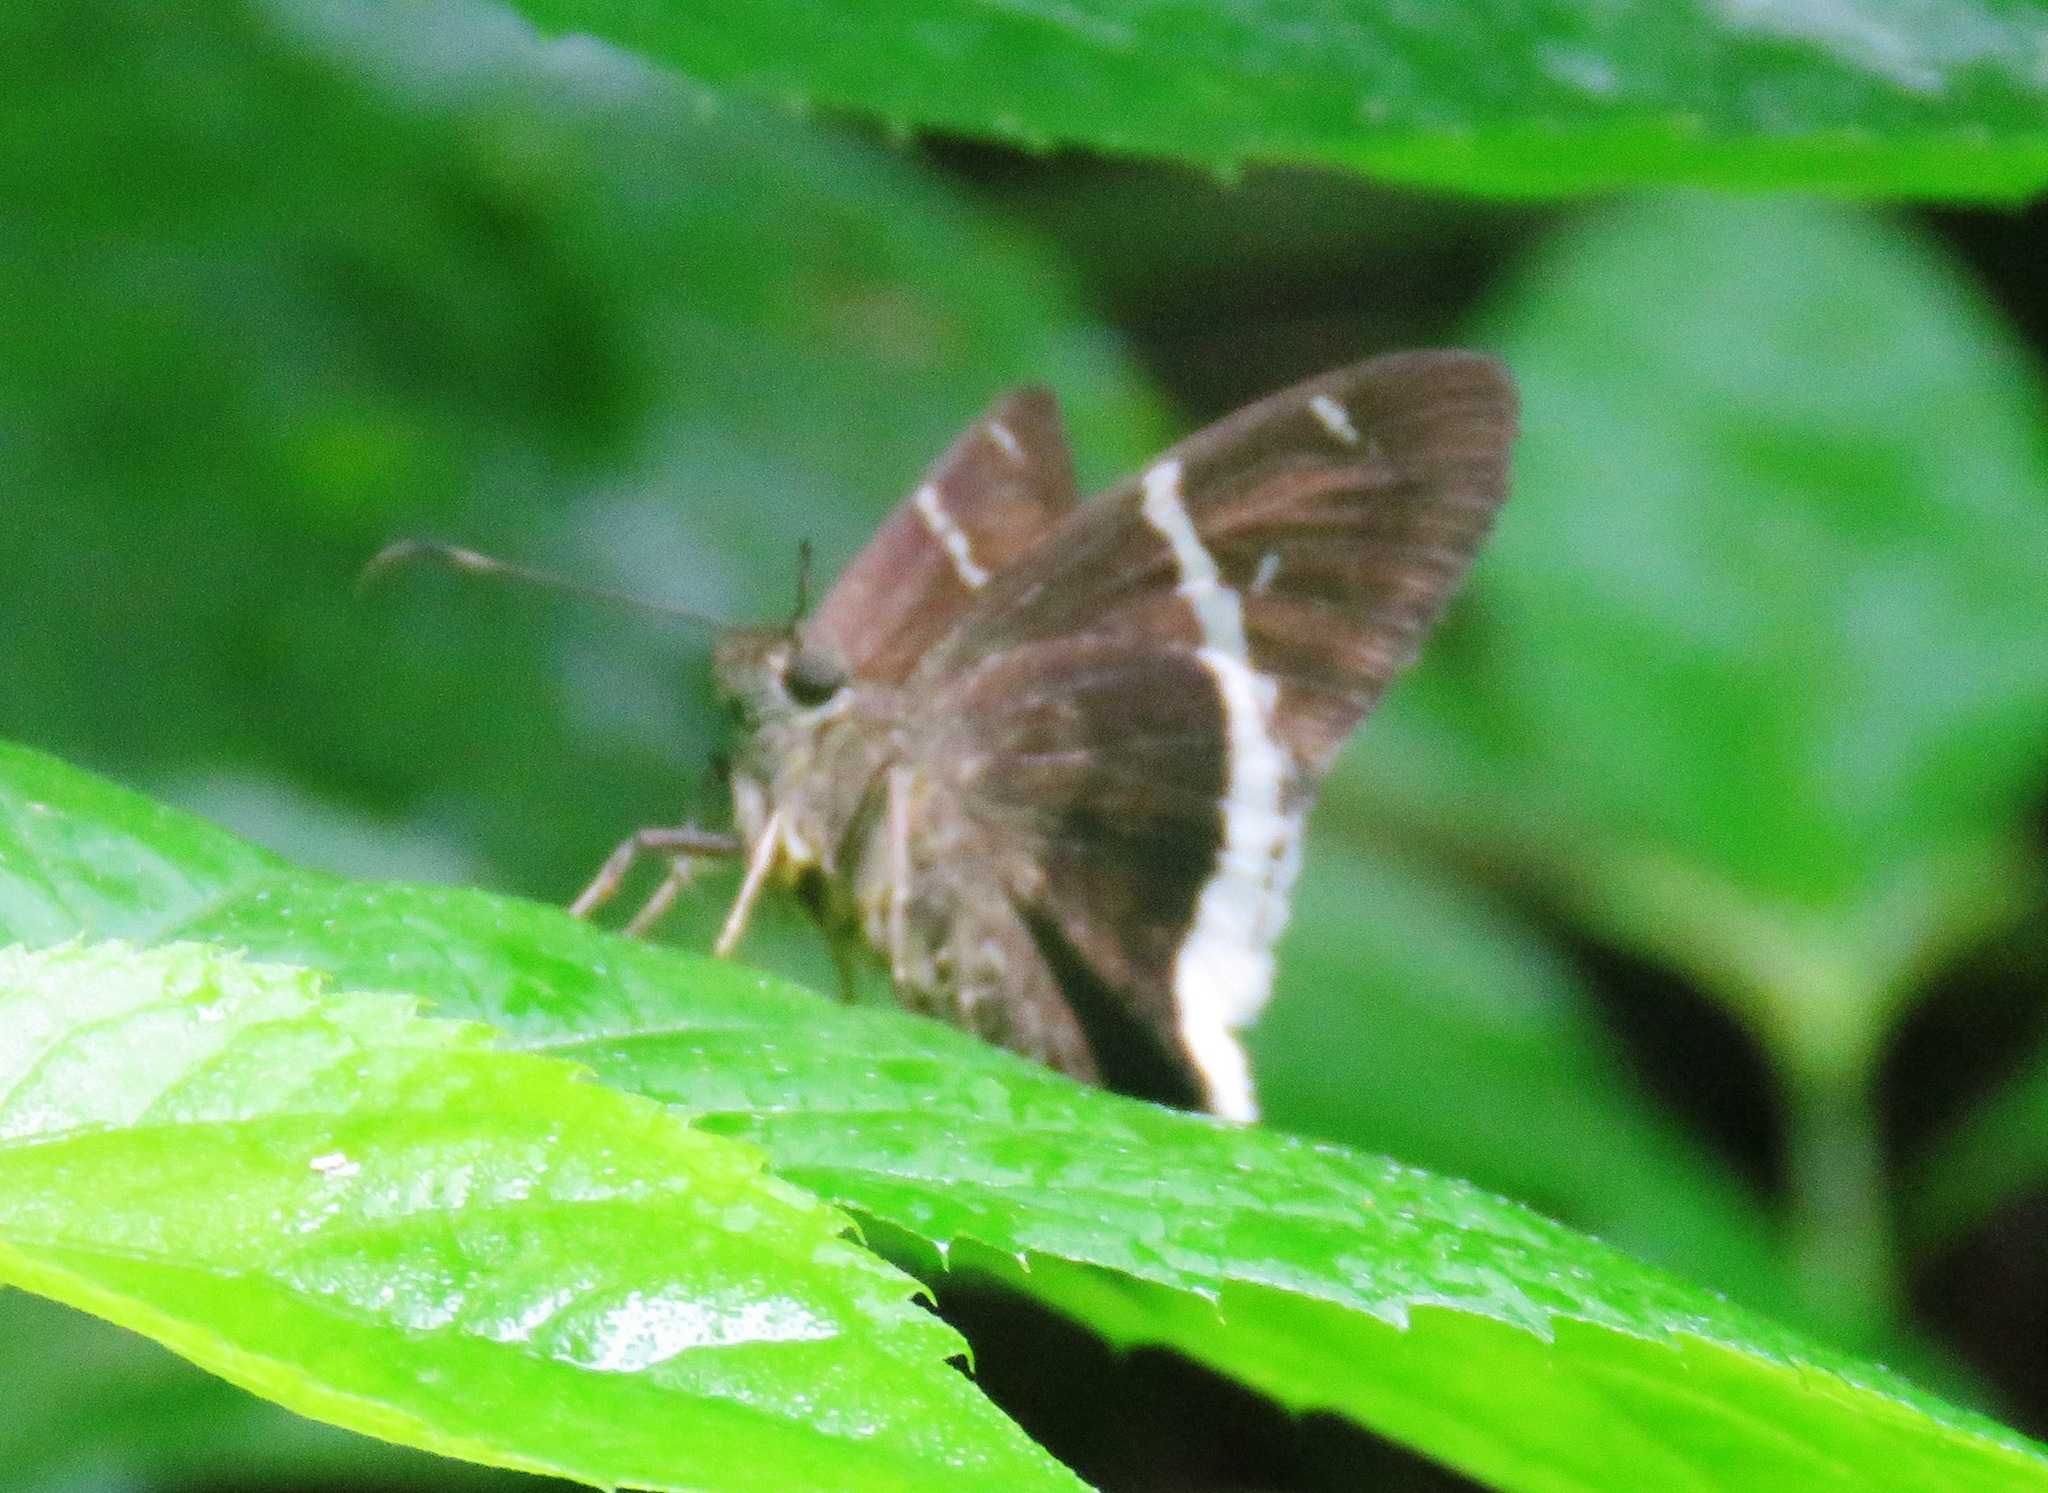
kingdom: Animalia
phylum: Arthropoda
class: Insecta
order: Lepidoptera
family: Hesperiidae
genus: Achalarus
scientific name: Achalarus
